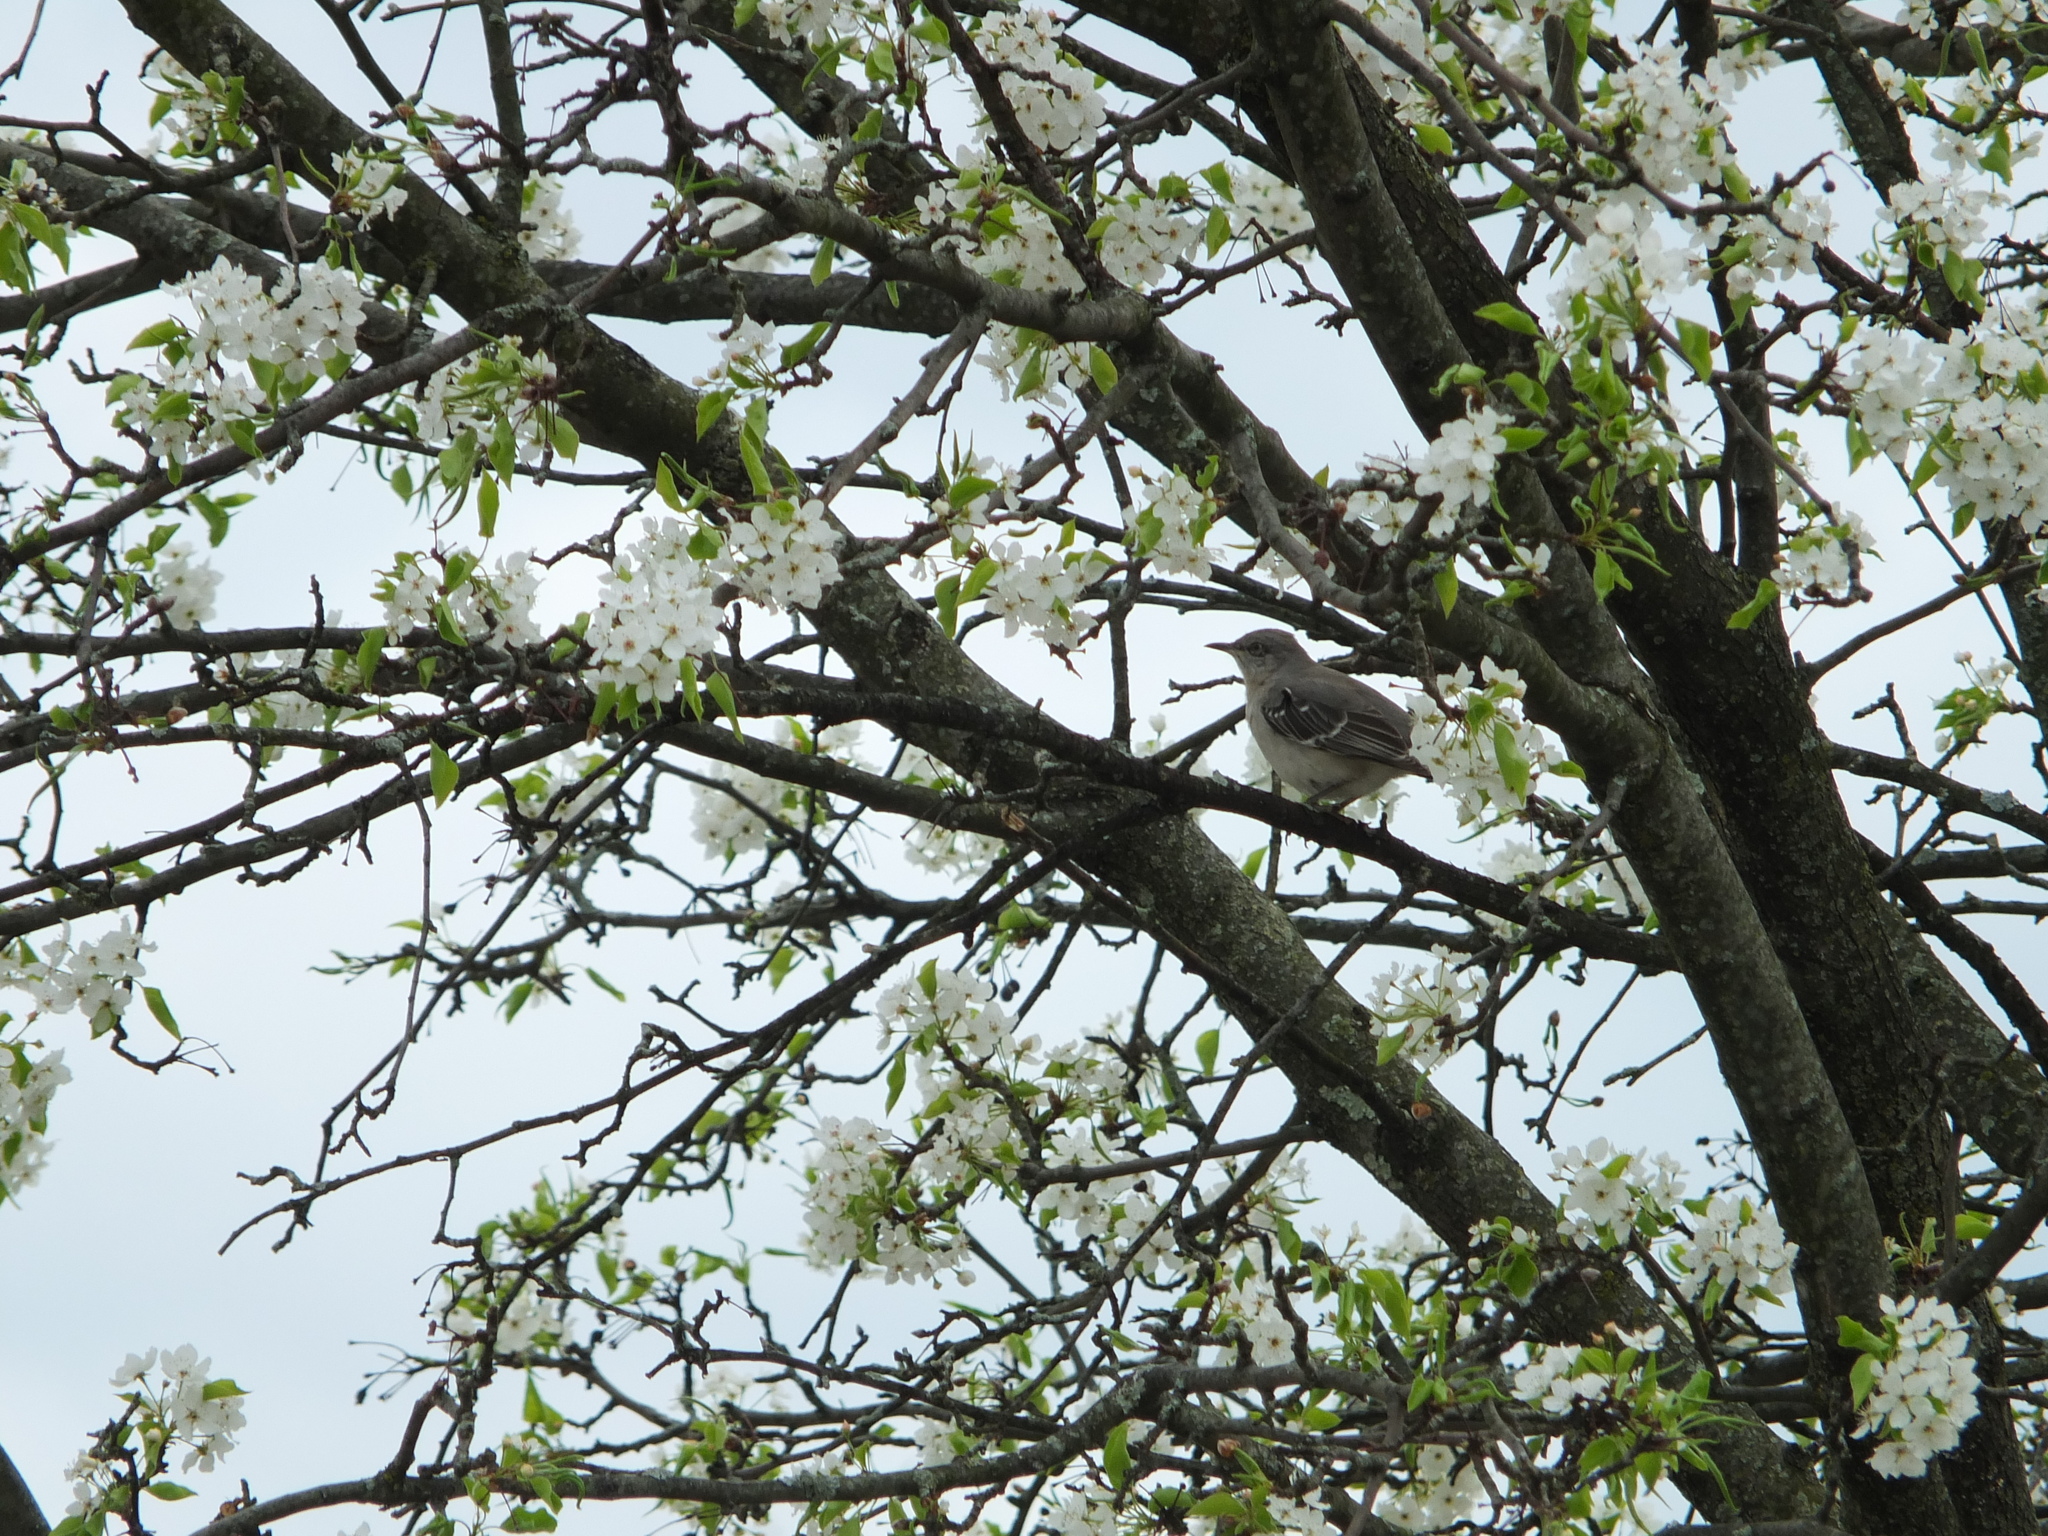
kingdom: Animalia
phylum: Chordata
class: Aves
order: Passeriformes
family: Mimidae
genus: Mimus
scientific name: Mimus polyglottos
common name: Northern mockingbird
